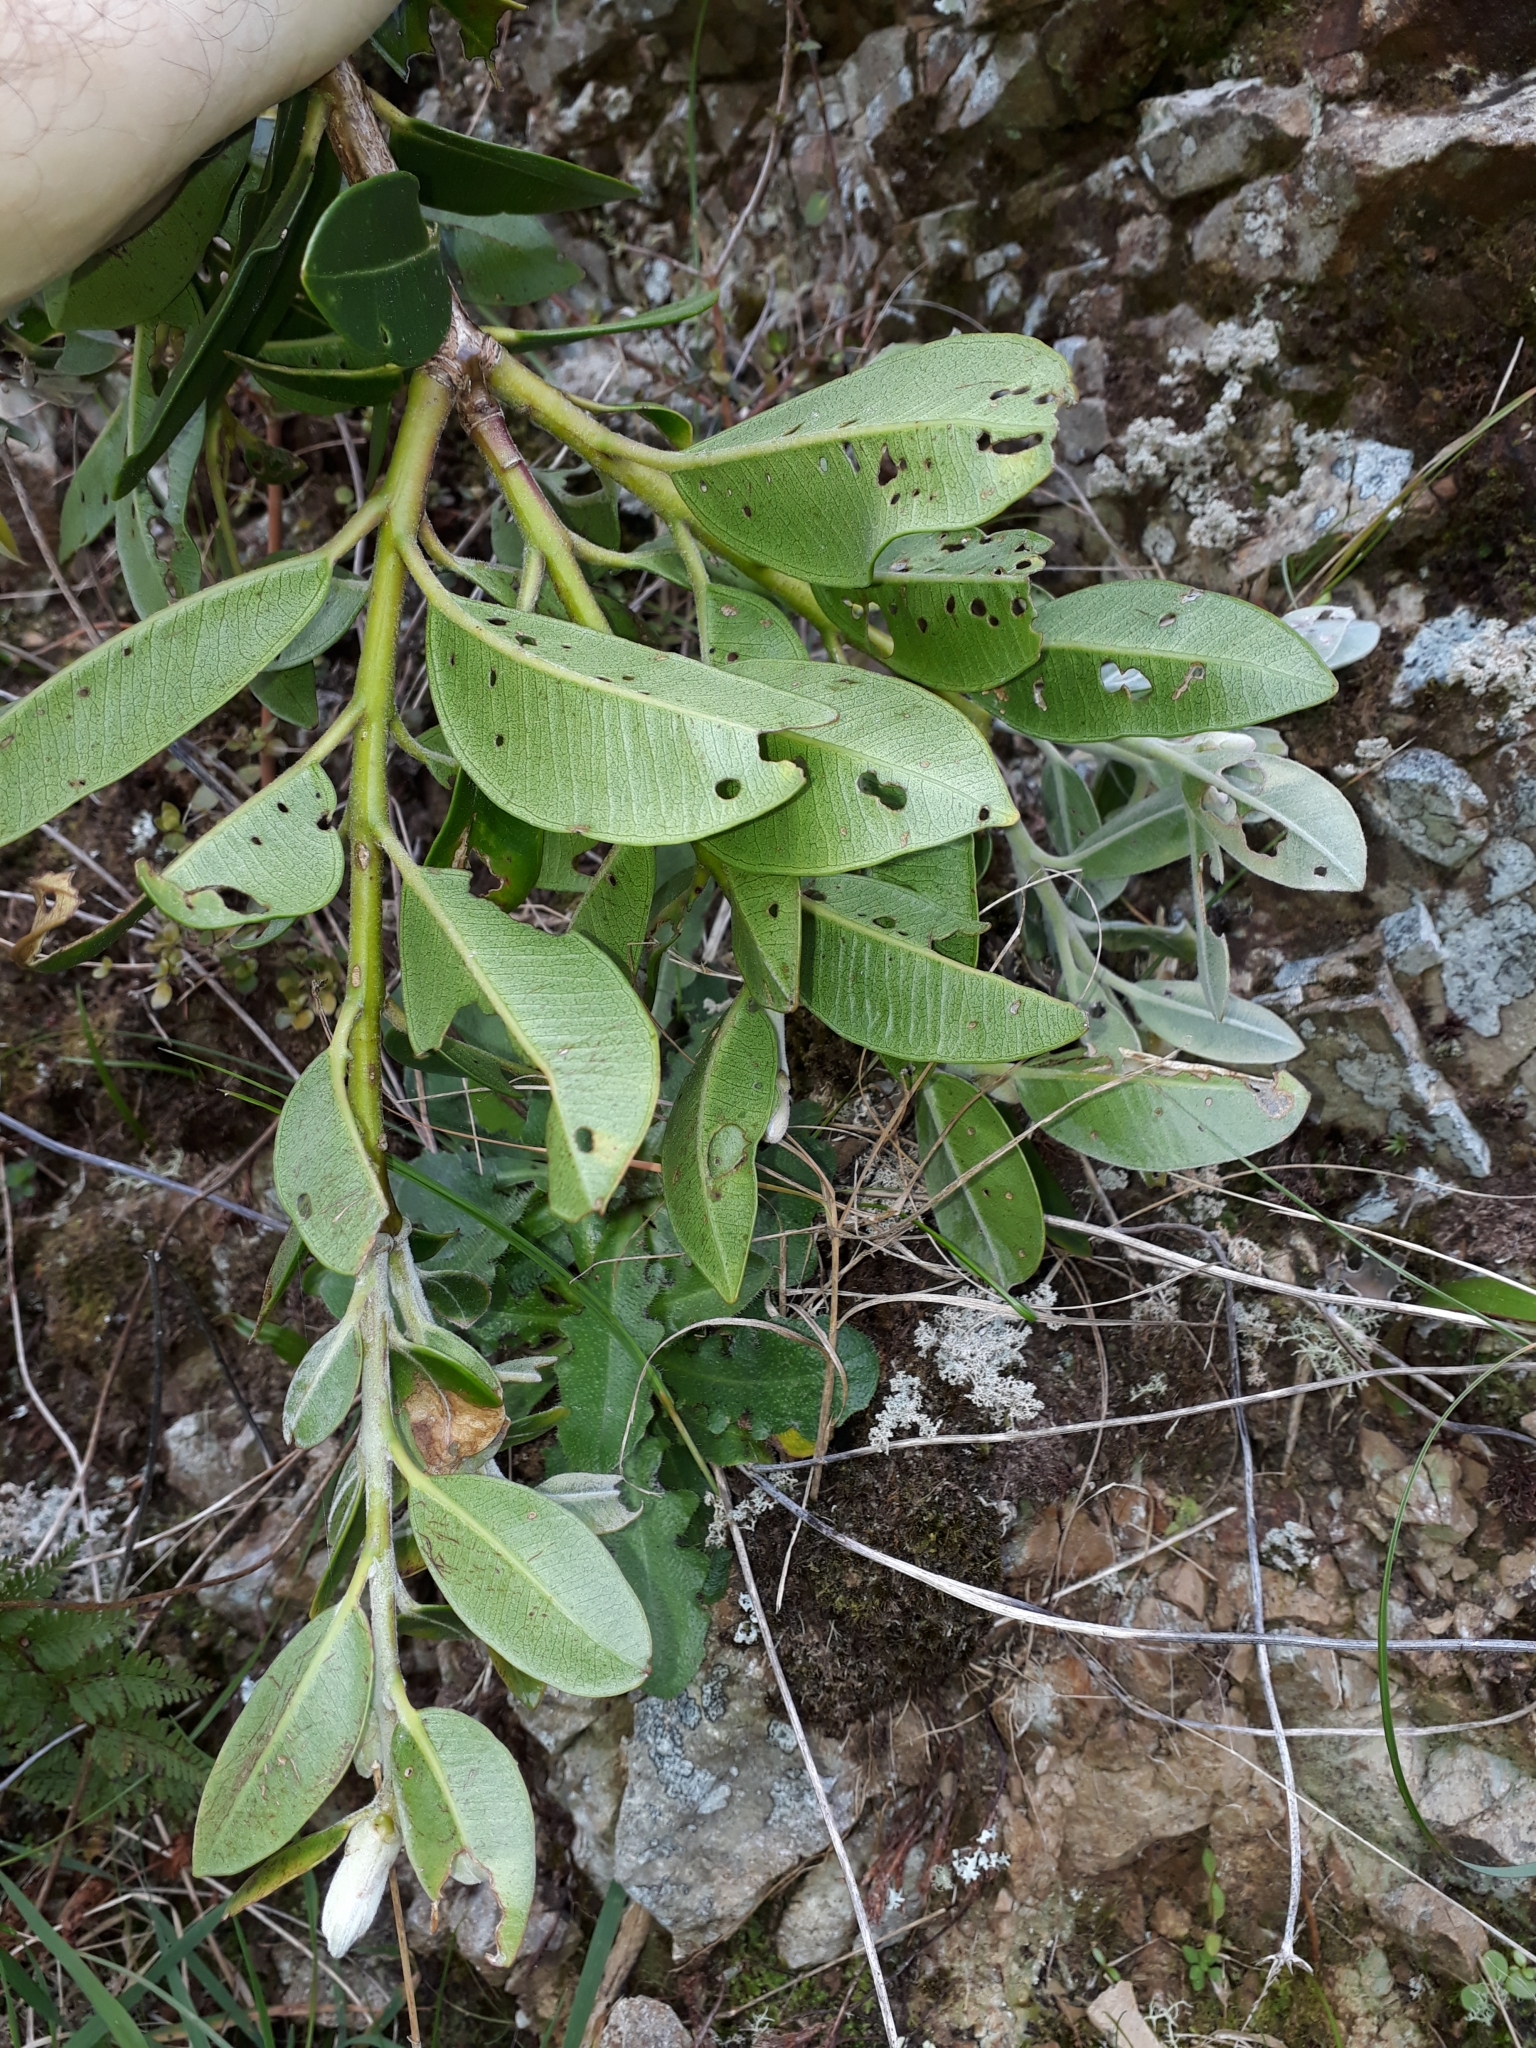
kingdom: Plantae
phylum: Tracheophyta
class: Magnoliopsida
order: Myrtales
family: Myrtaceae
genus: Metrosideros
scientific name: Metrosideros excelsa
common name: New zealand christmastree
